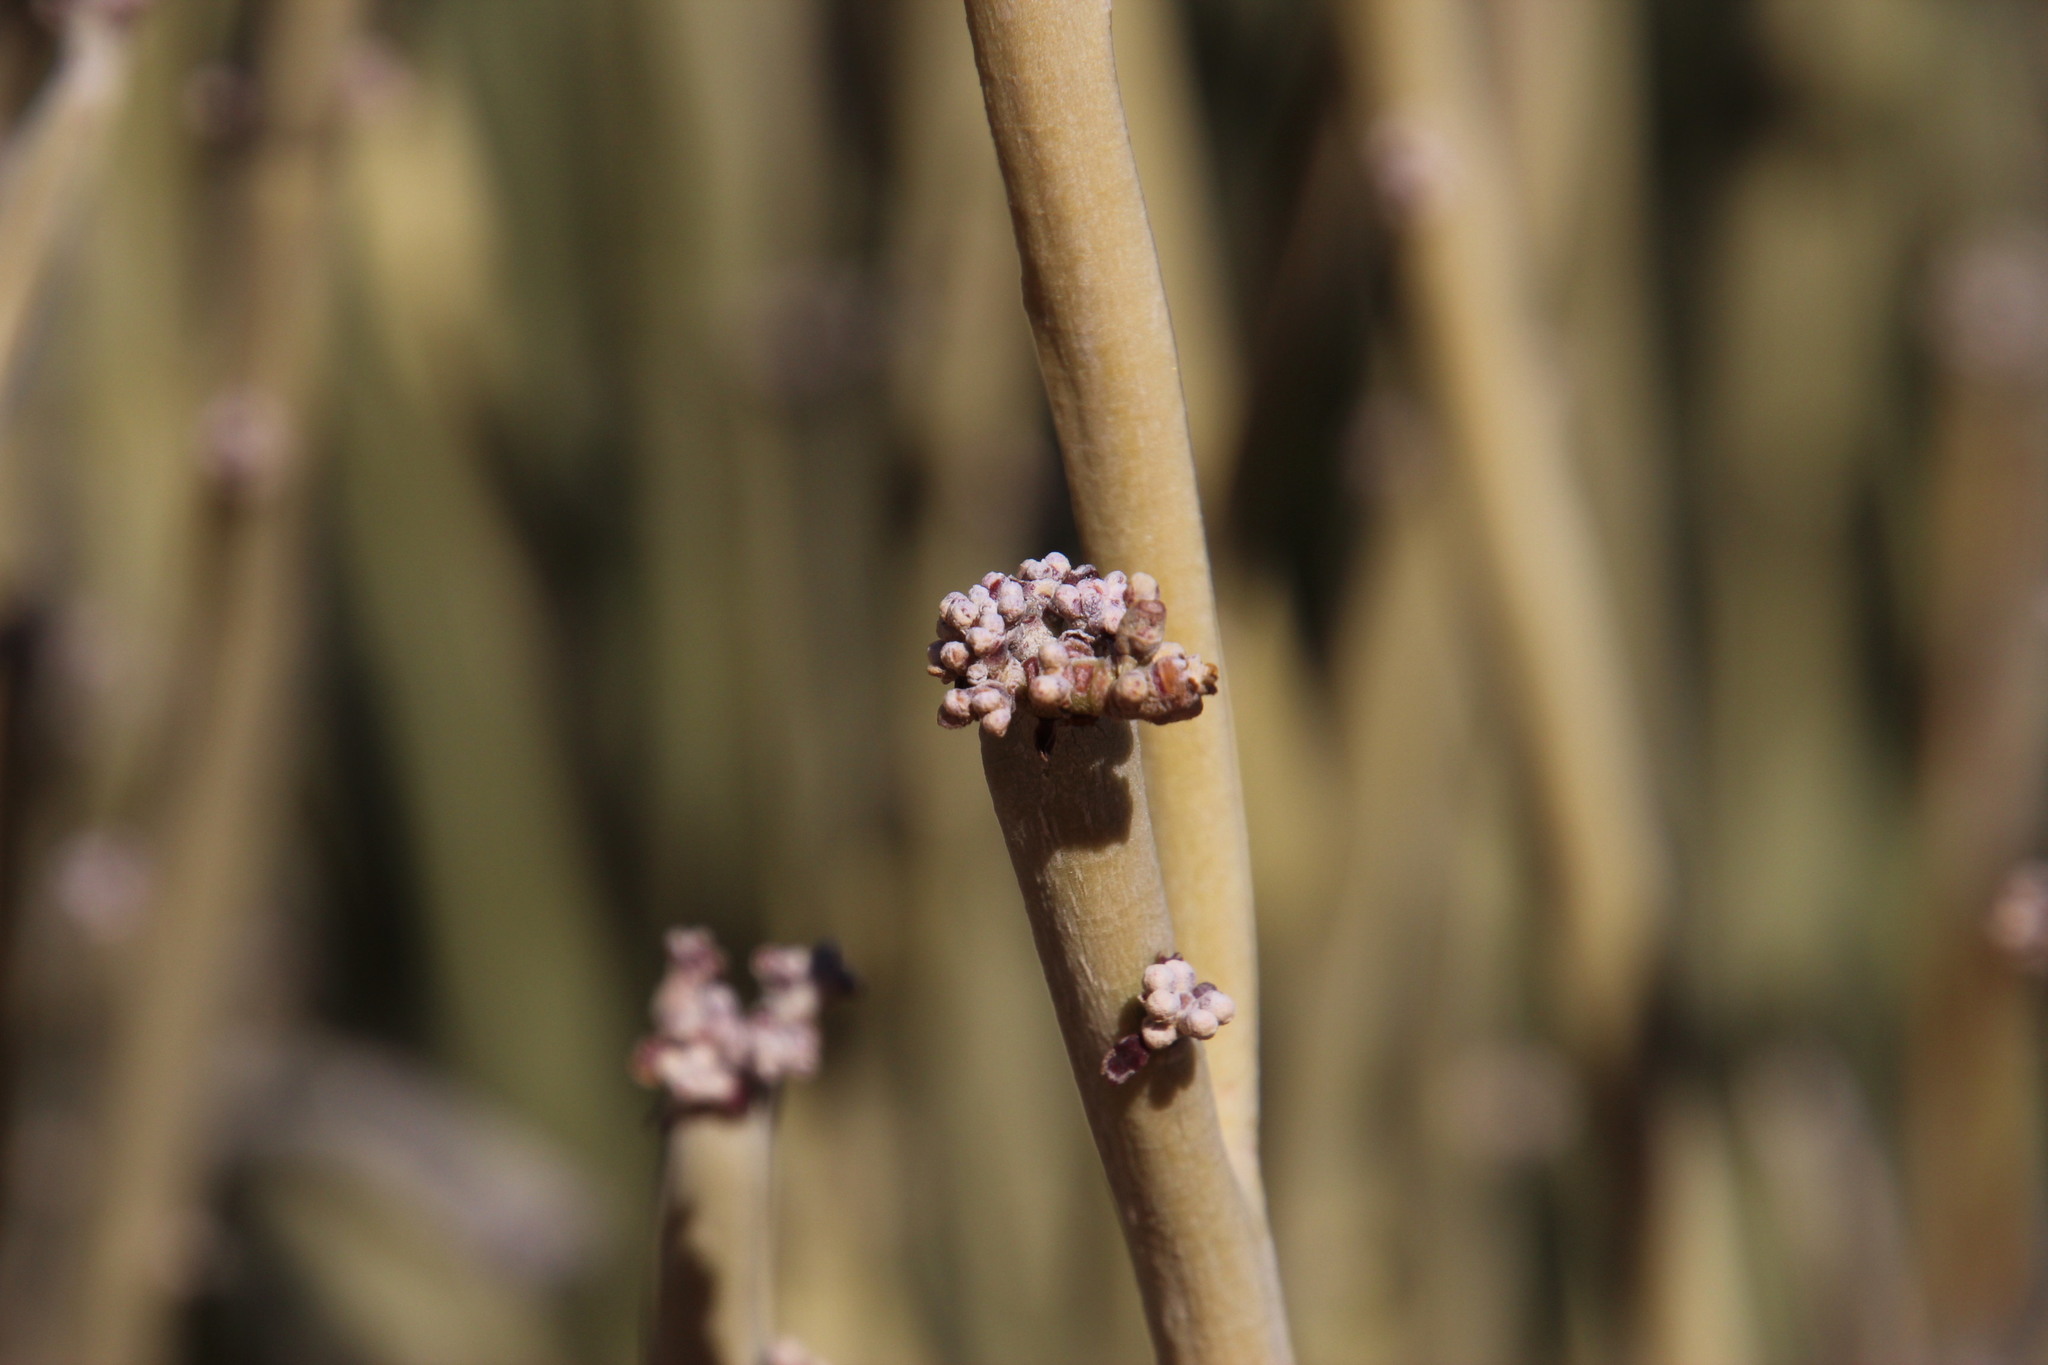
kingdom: Plantae
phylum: Tracheophyta
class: Magnoliopsida
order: Malpighiales
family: Euphorbiaceae
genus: Euphorbia
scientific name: Euphorbia gregaria
